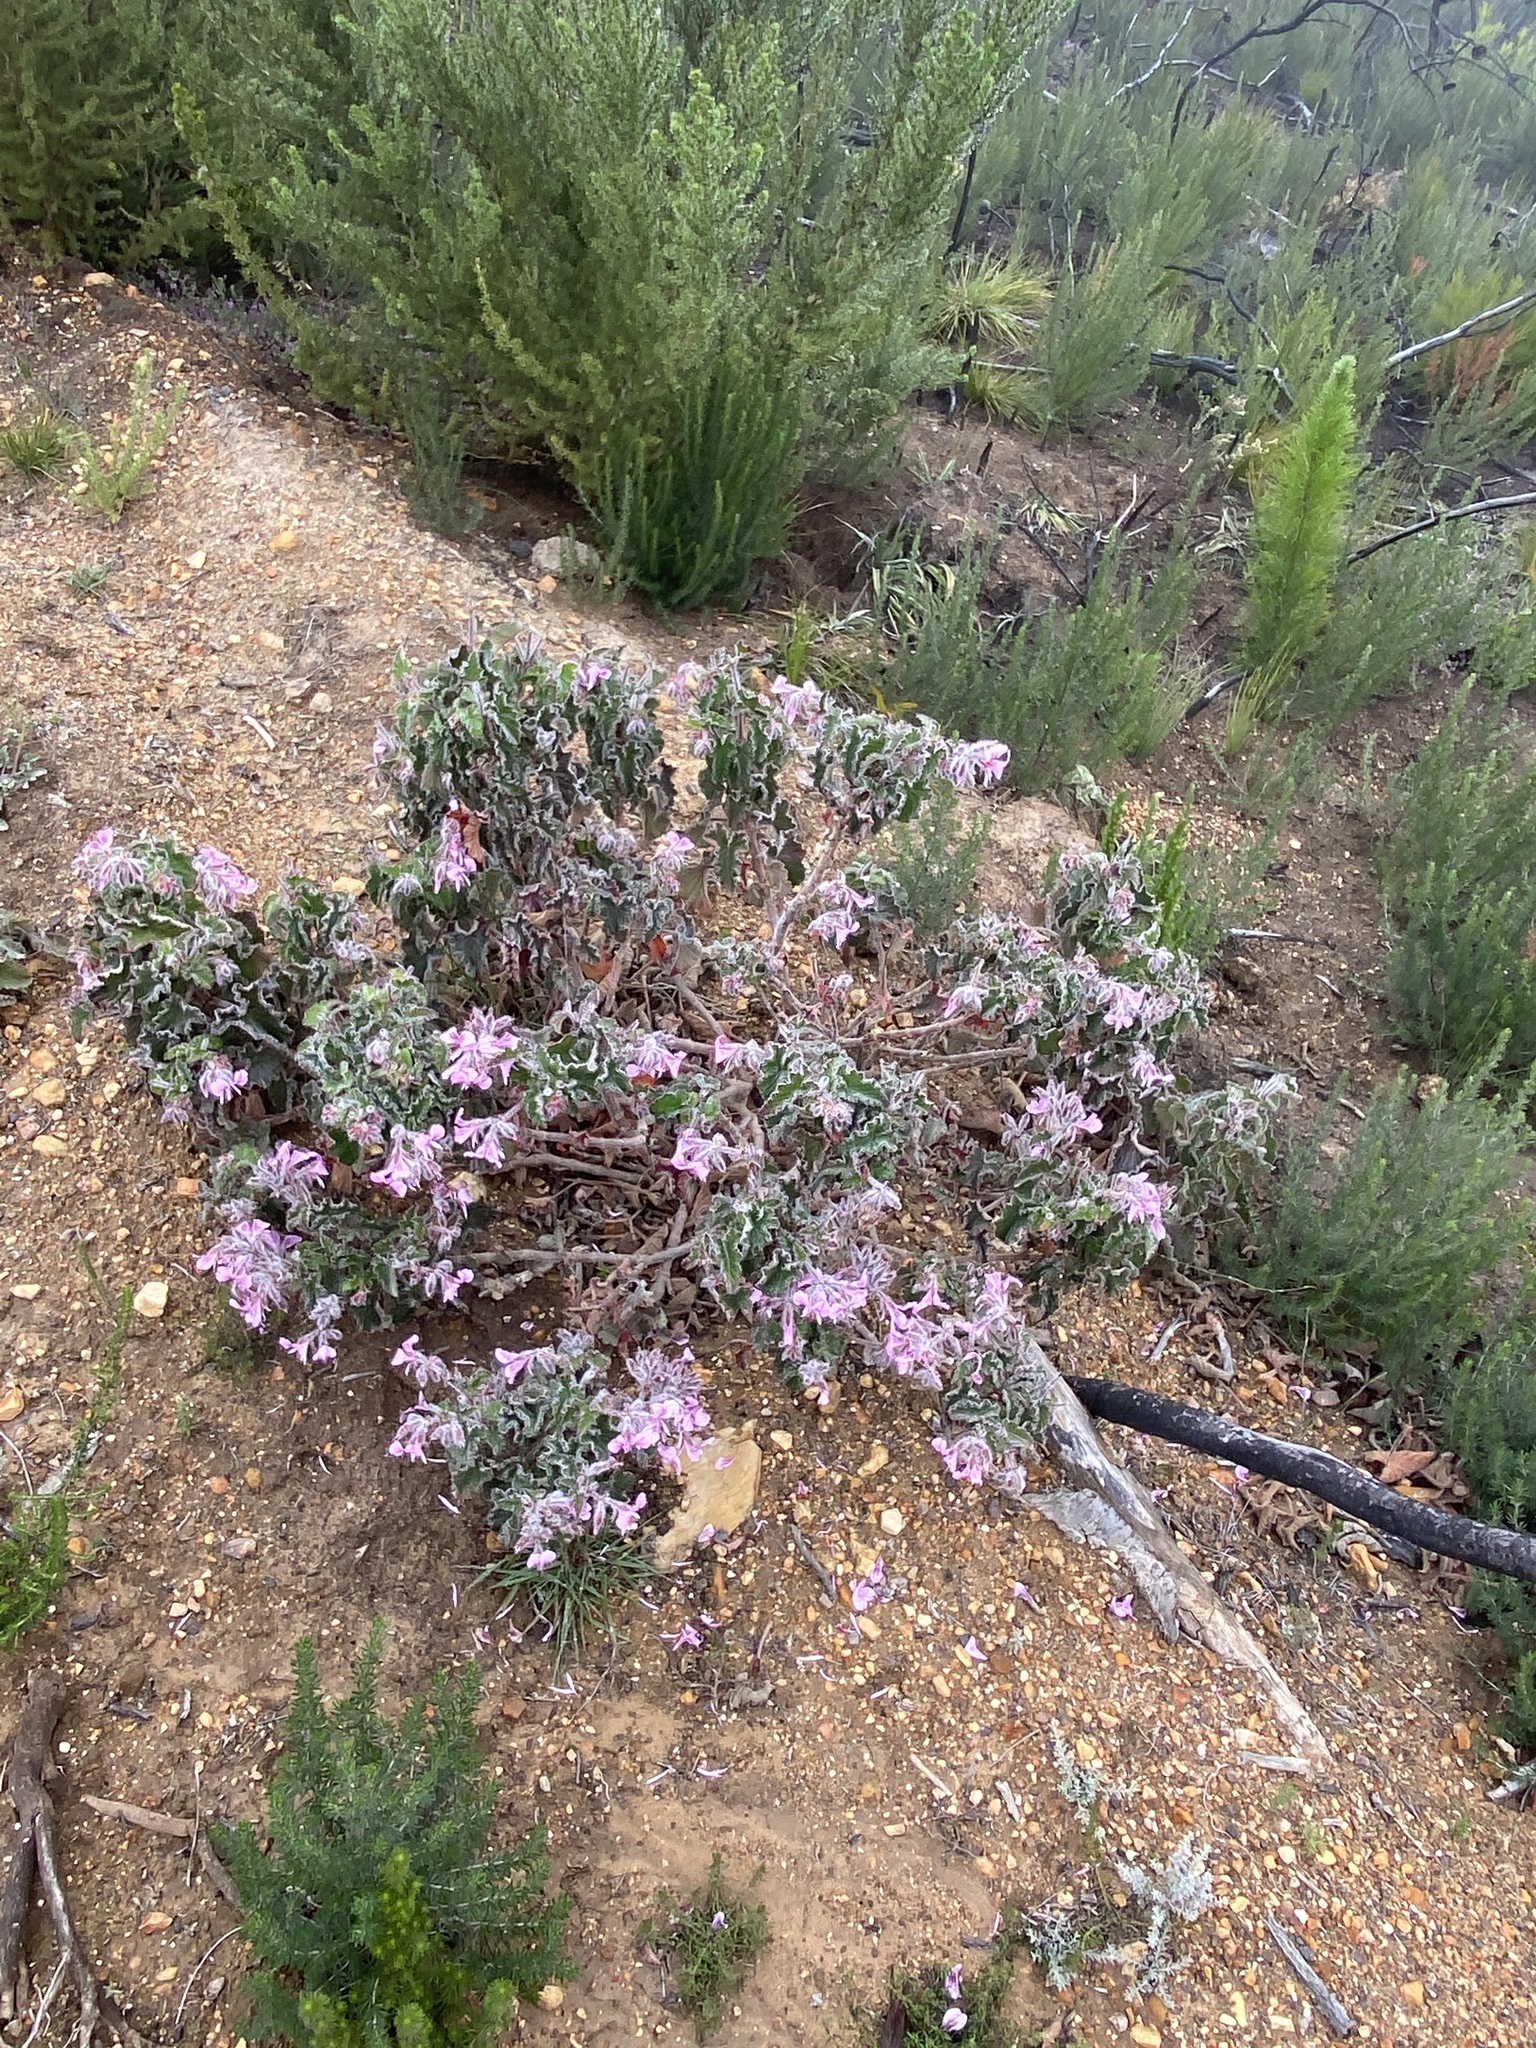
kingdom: Plantae
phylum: Tracheophyta
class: Magnoliopsida
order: Geraniales
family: Geraniaceae
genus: Pelargonium
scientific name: Pelargonium cordifolium
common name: Heart-leaf pelargonium
